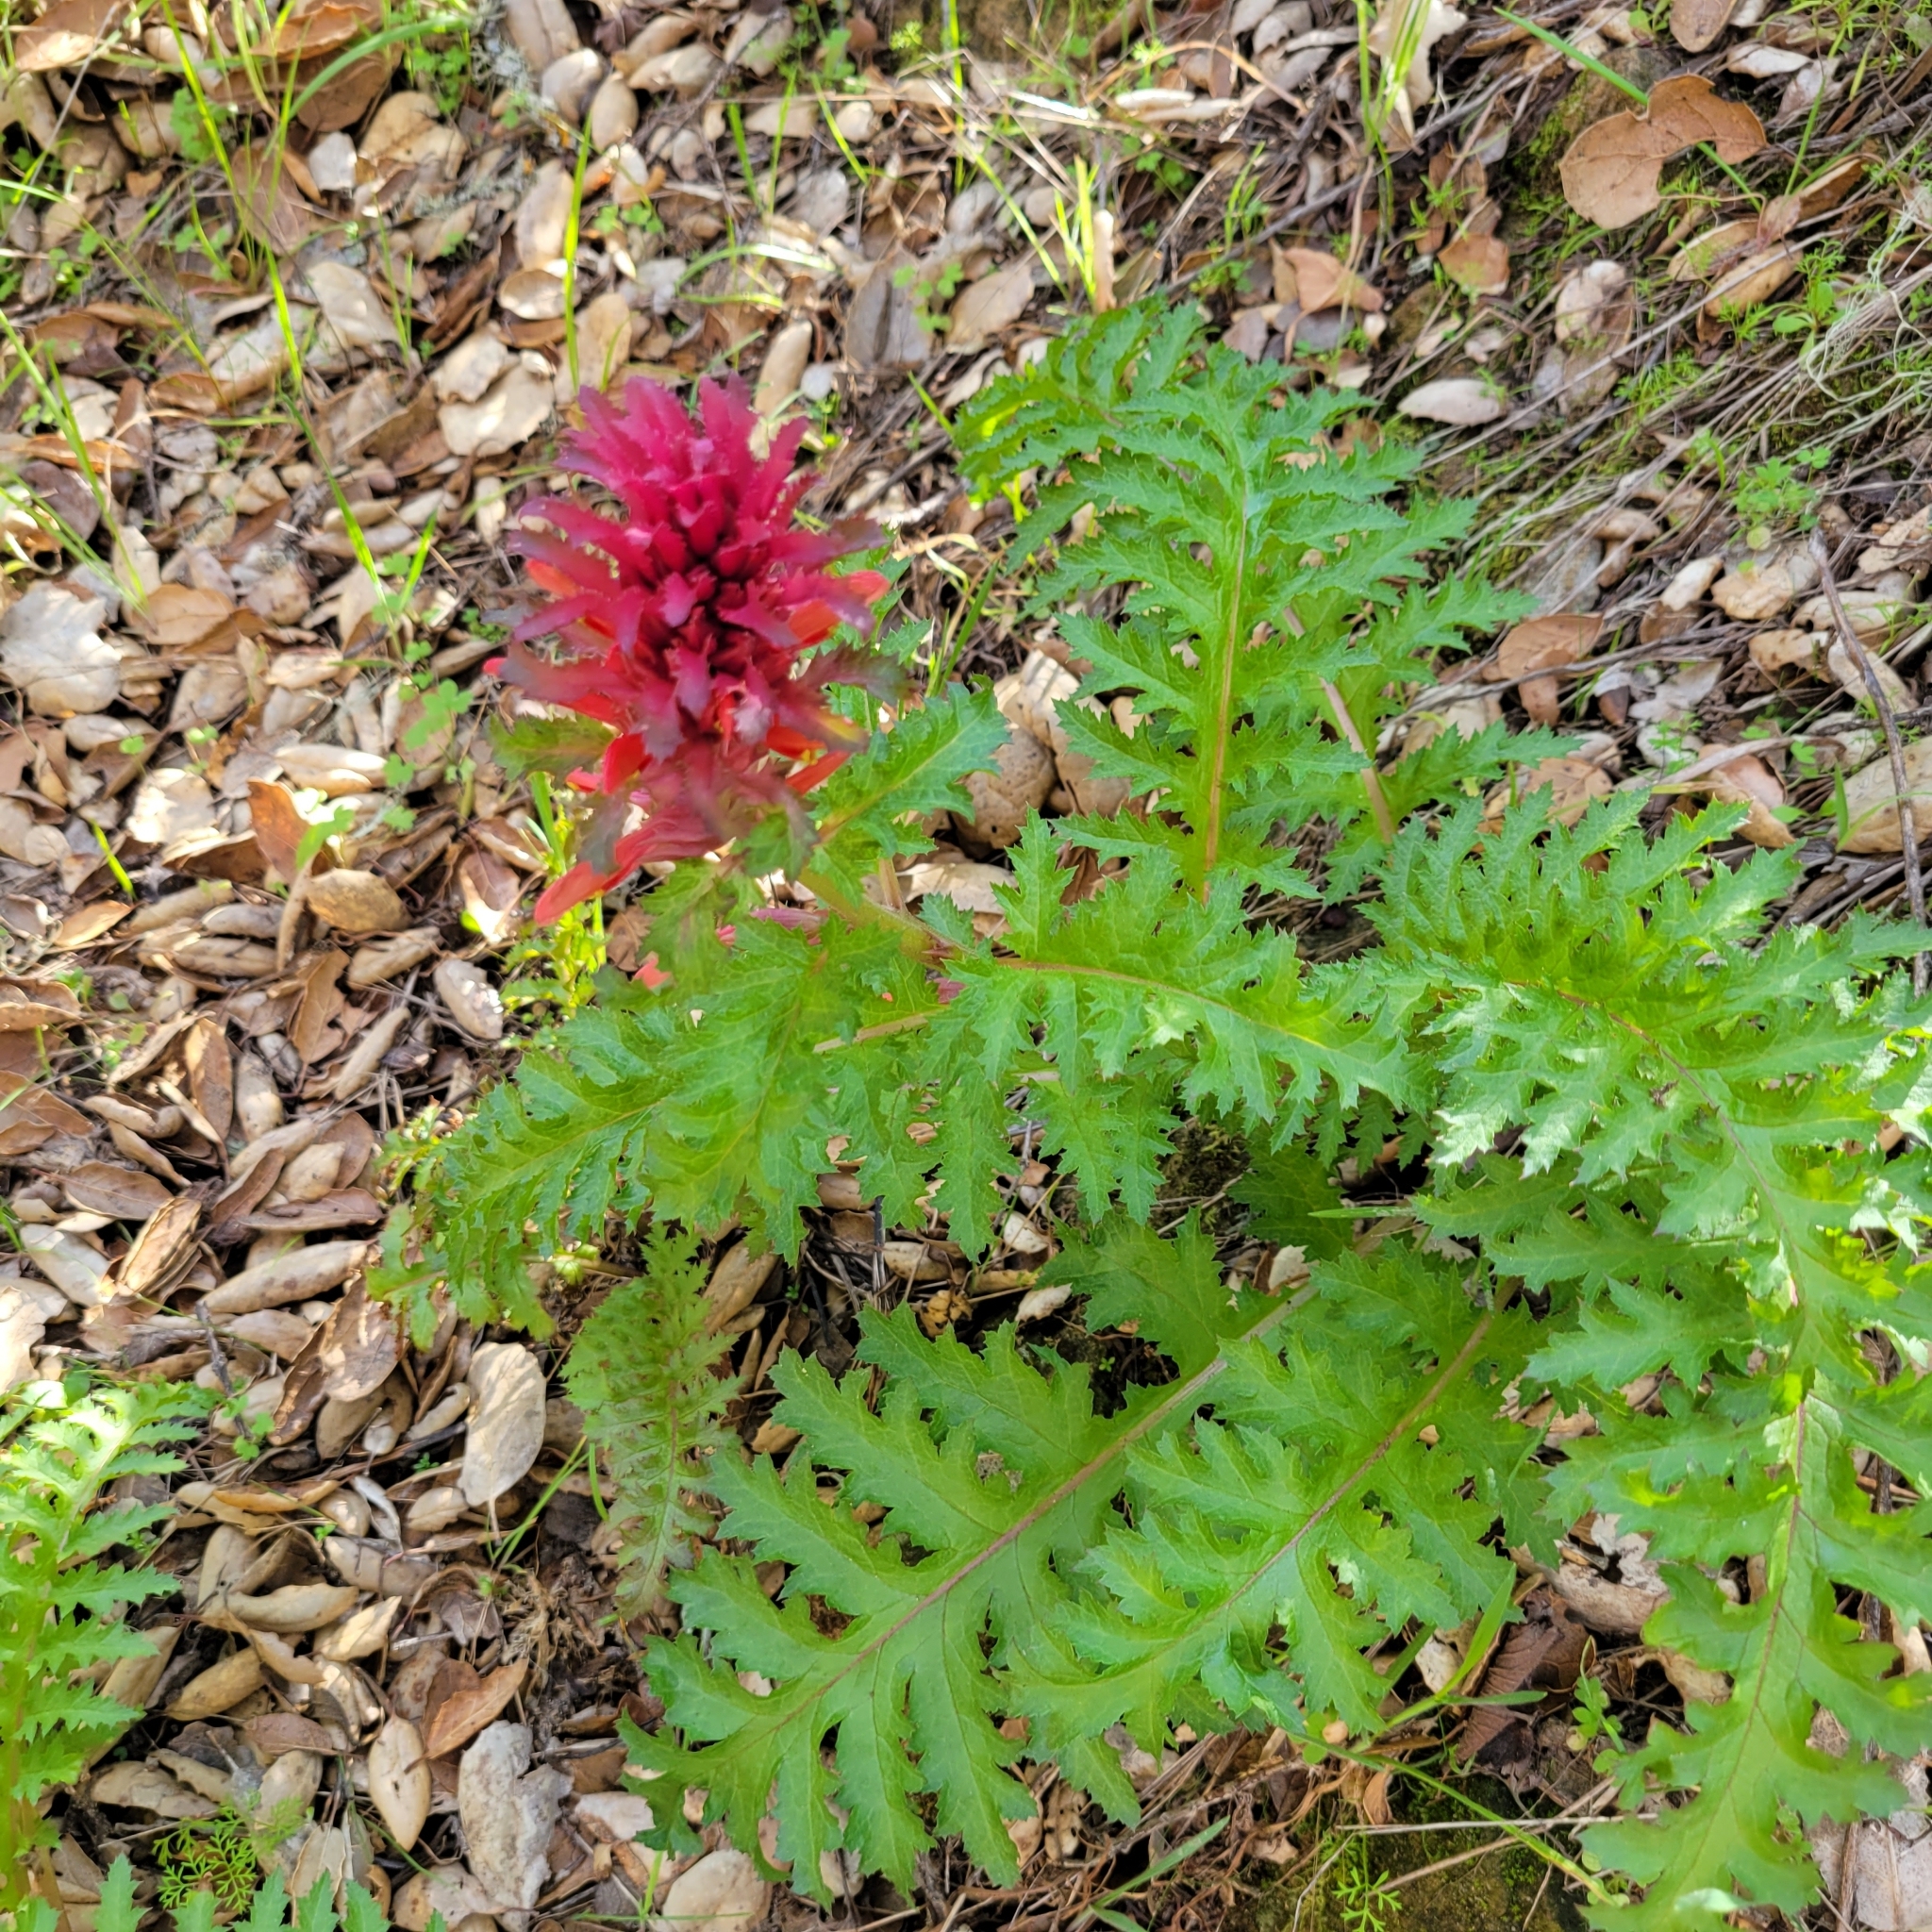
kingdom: Plantae
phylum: Tracheophyta
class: Magnoliopsida
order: Lamiales
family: Orobanchaceae
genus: Pedicularis
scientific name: Pedicularis densiflora
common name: Indian warrior
